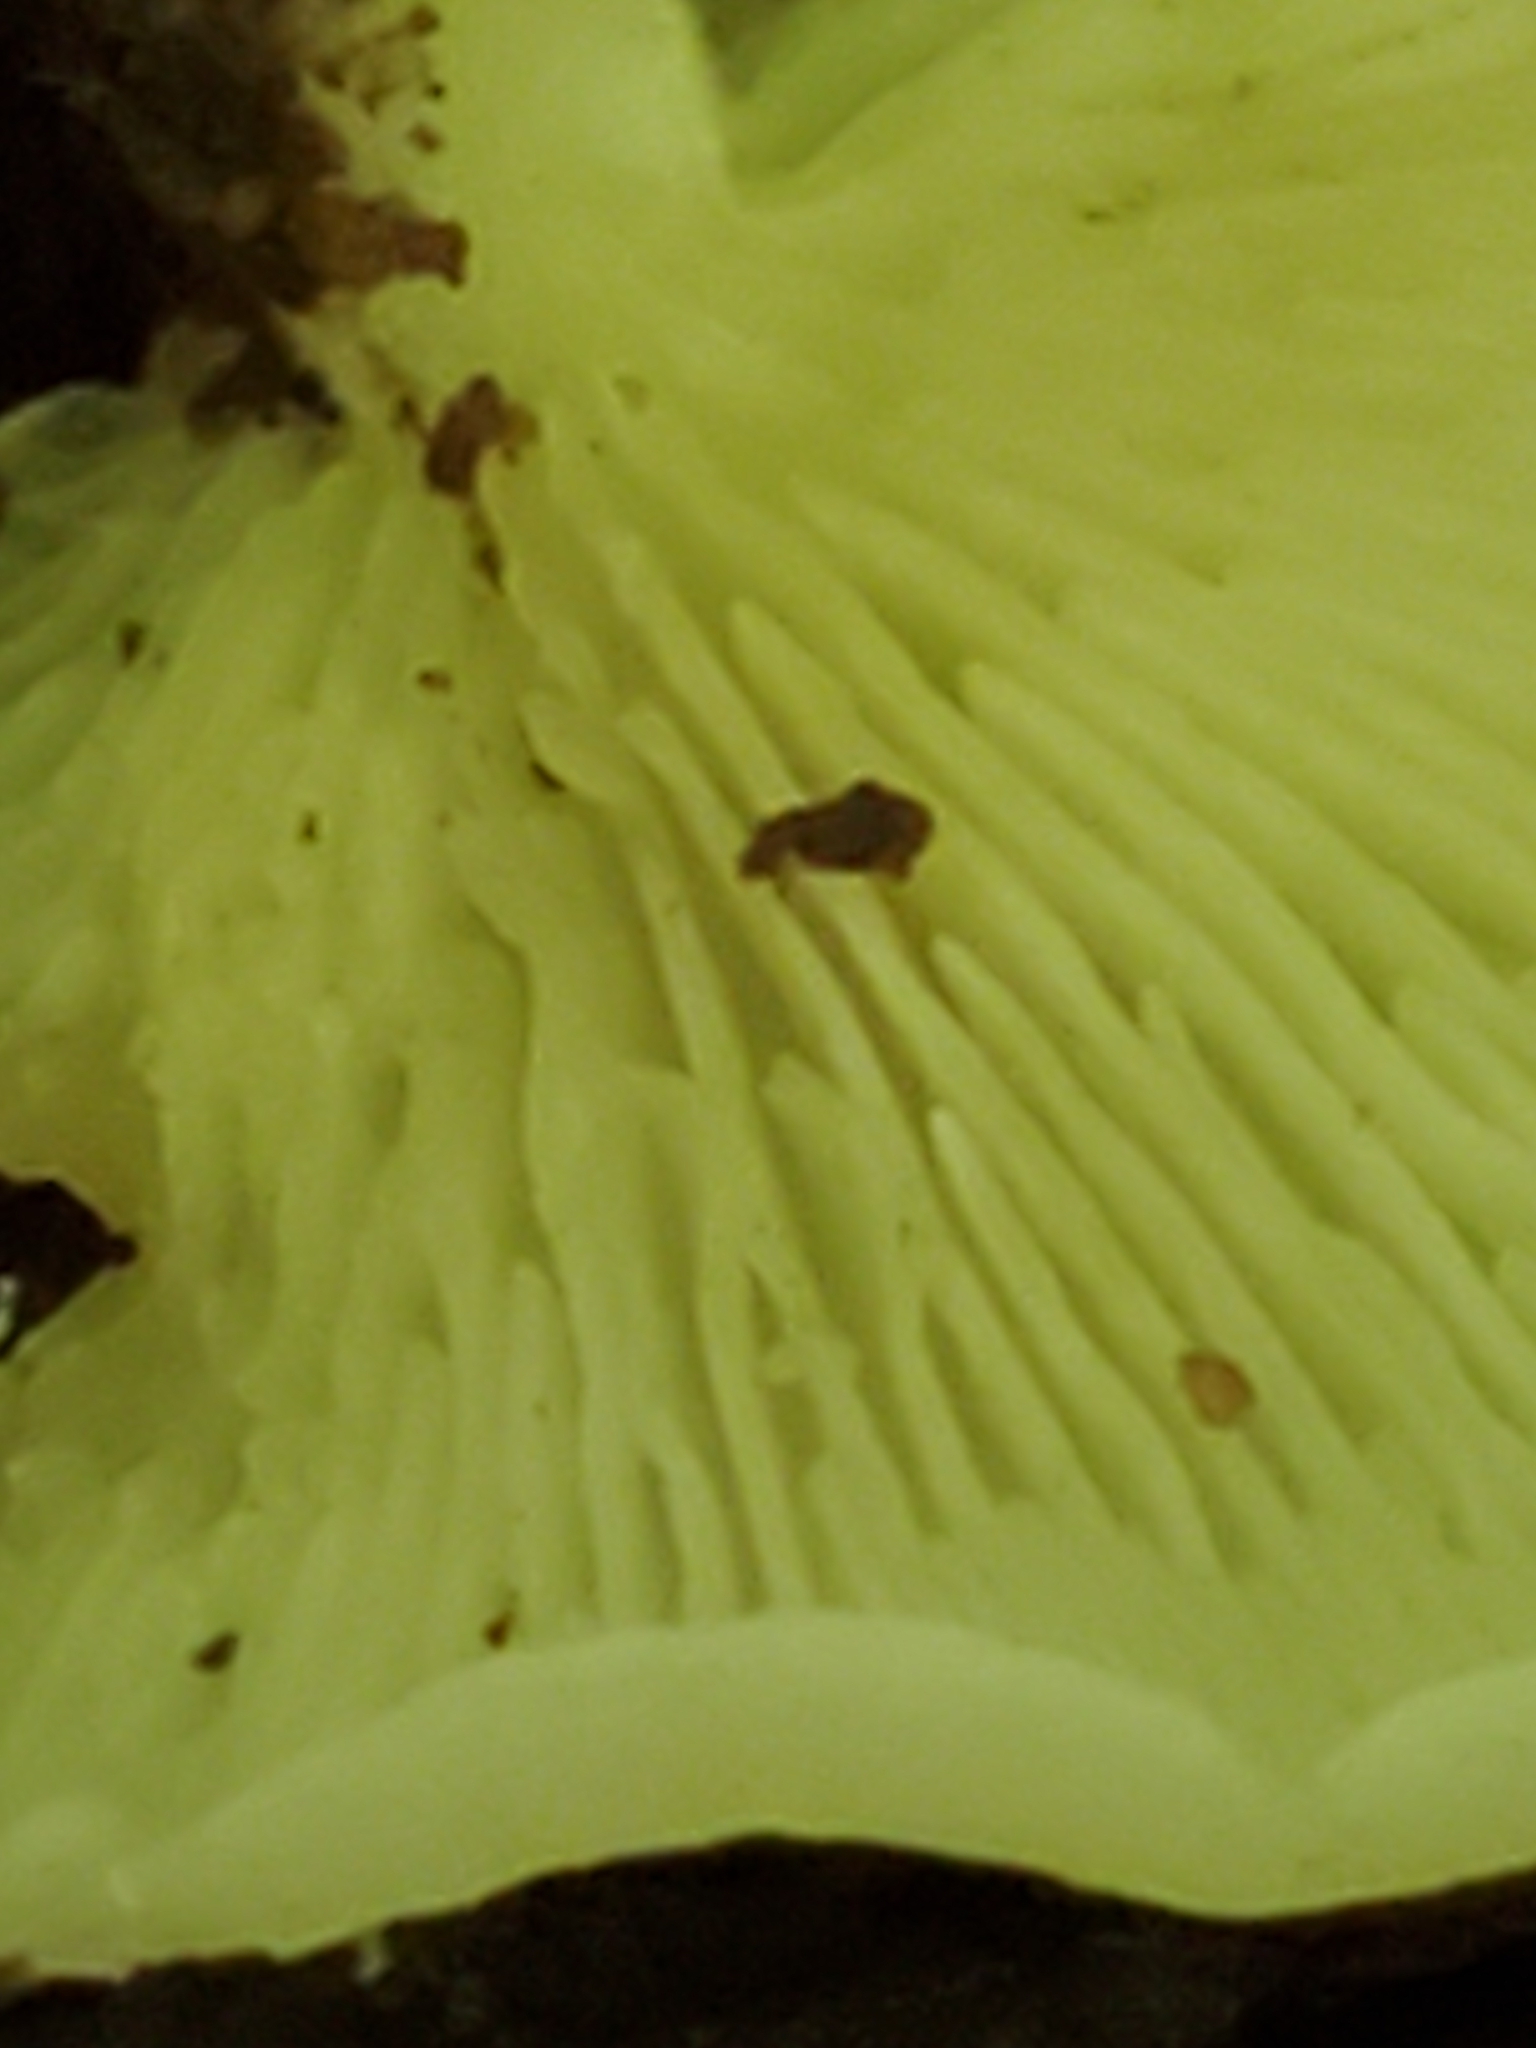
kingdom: Fungi
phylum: Basidiomycota
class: Agaricomycetes
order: Agaricales
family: Crepidotaceae
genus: Crepidotus
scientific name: Crepidotus applanatus
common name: Flat crep
